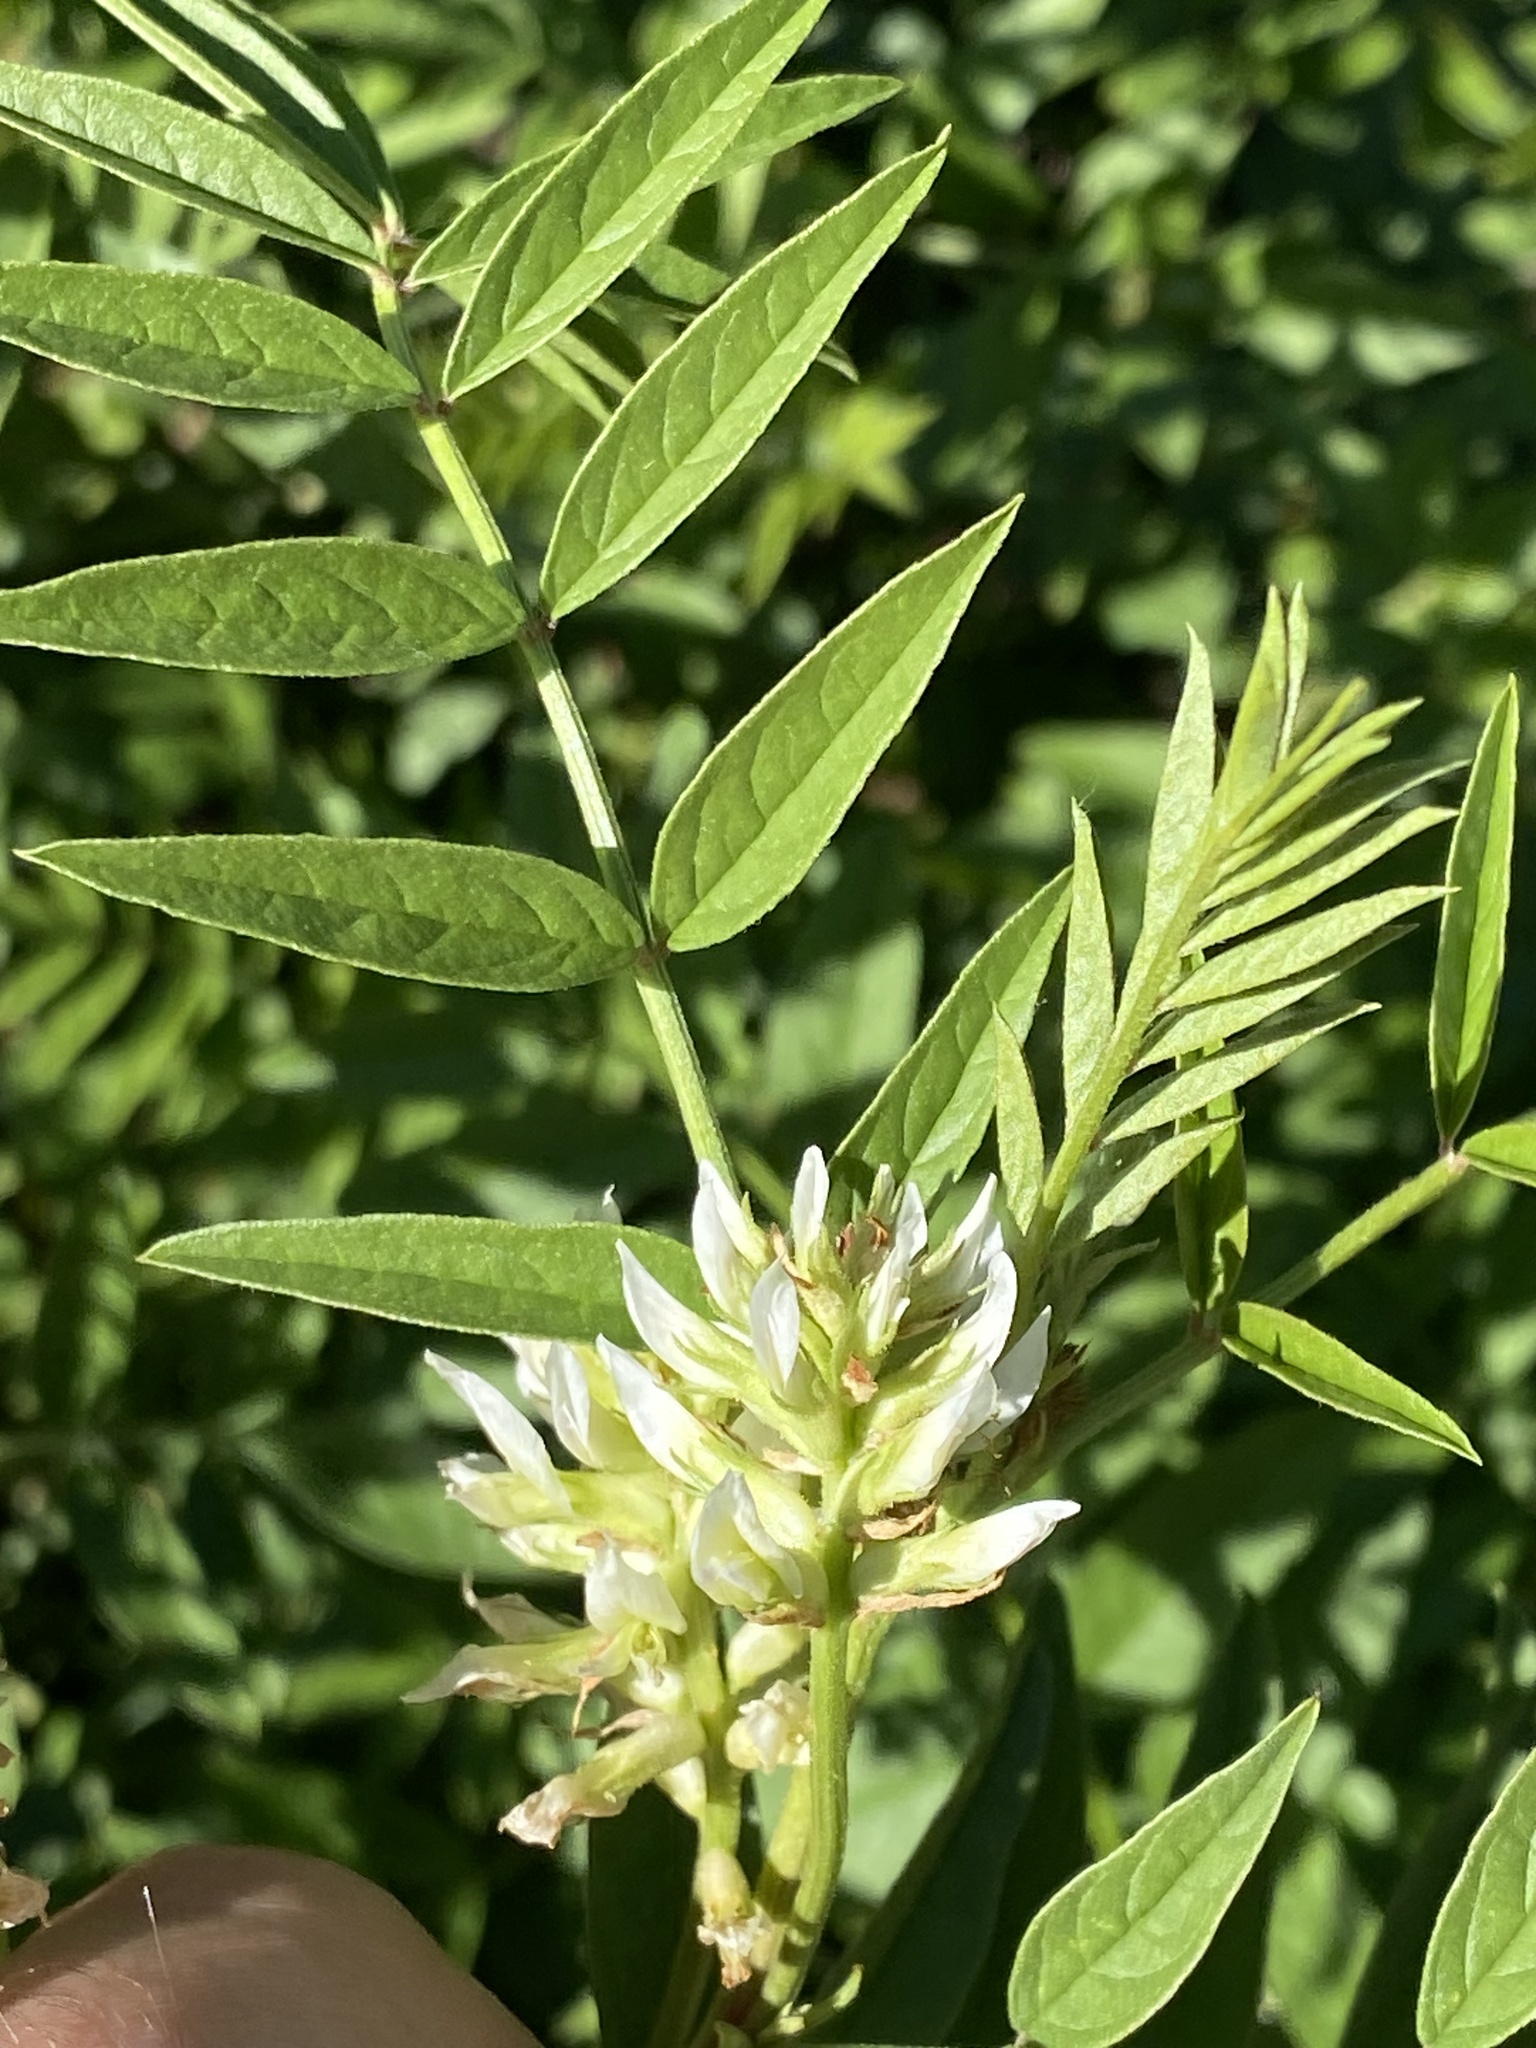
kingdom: Plantae
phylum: Tracheophyta
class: Magnoliopsida
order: Fabales
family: Fabaceae
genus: Glycyrrhiza
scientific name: Glycyrrhiza lepidota
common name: American liquorice
